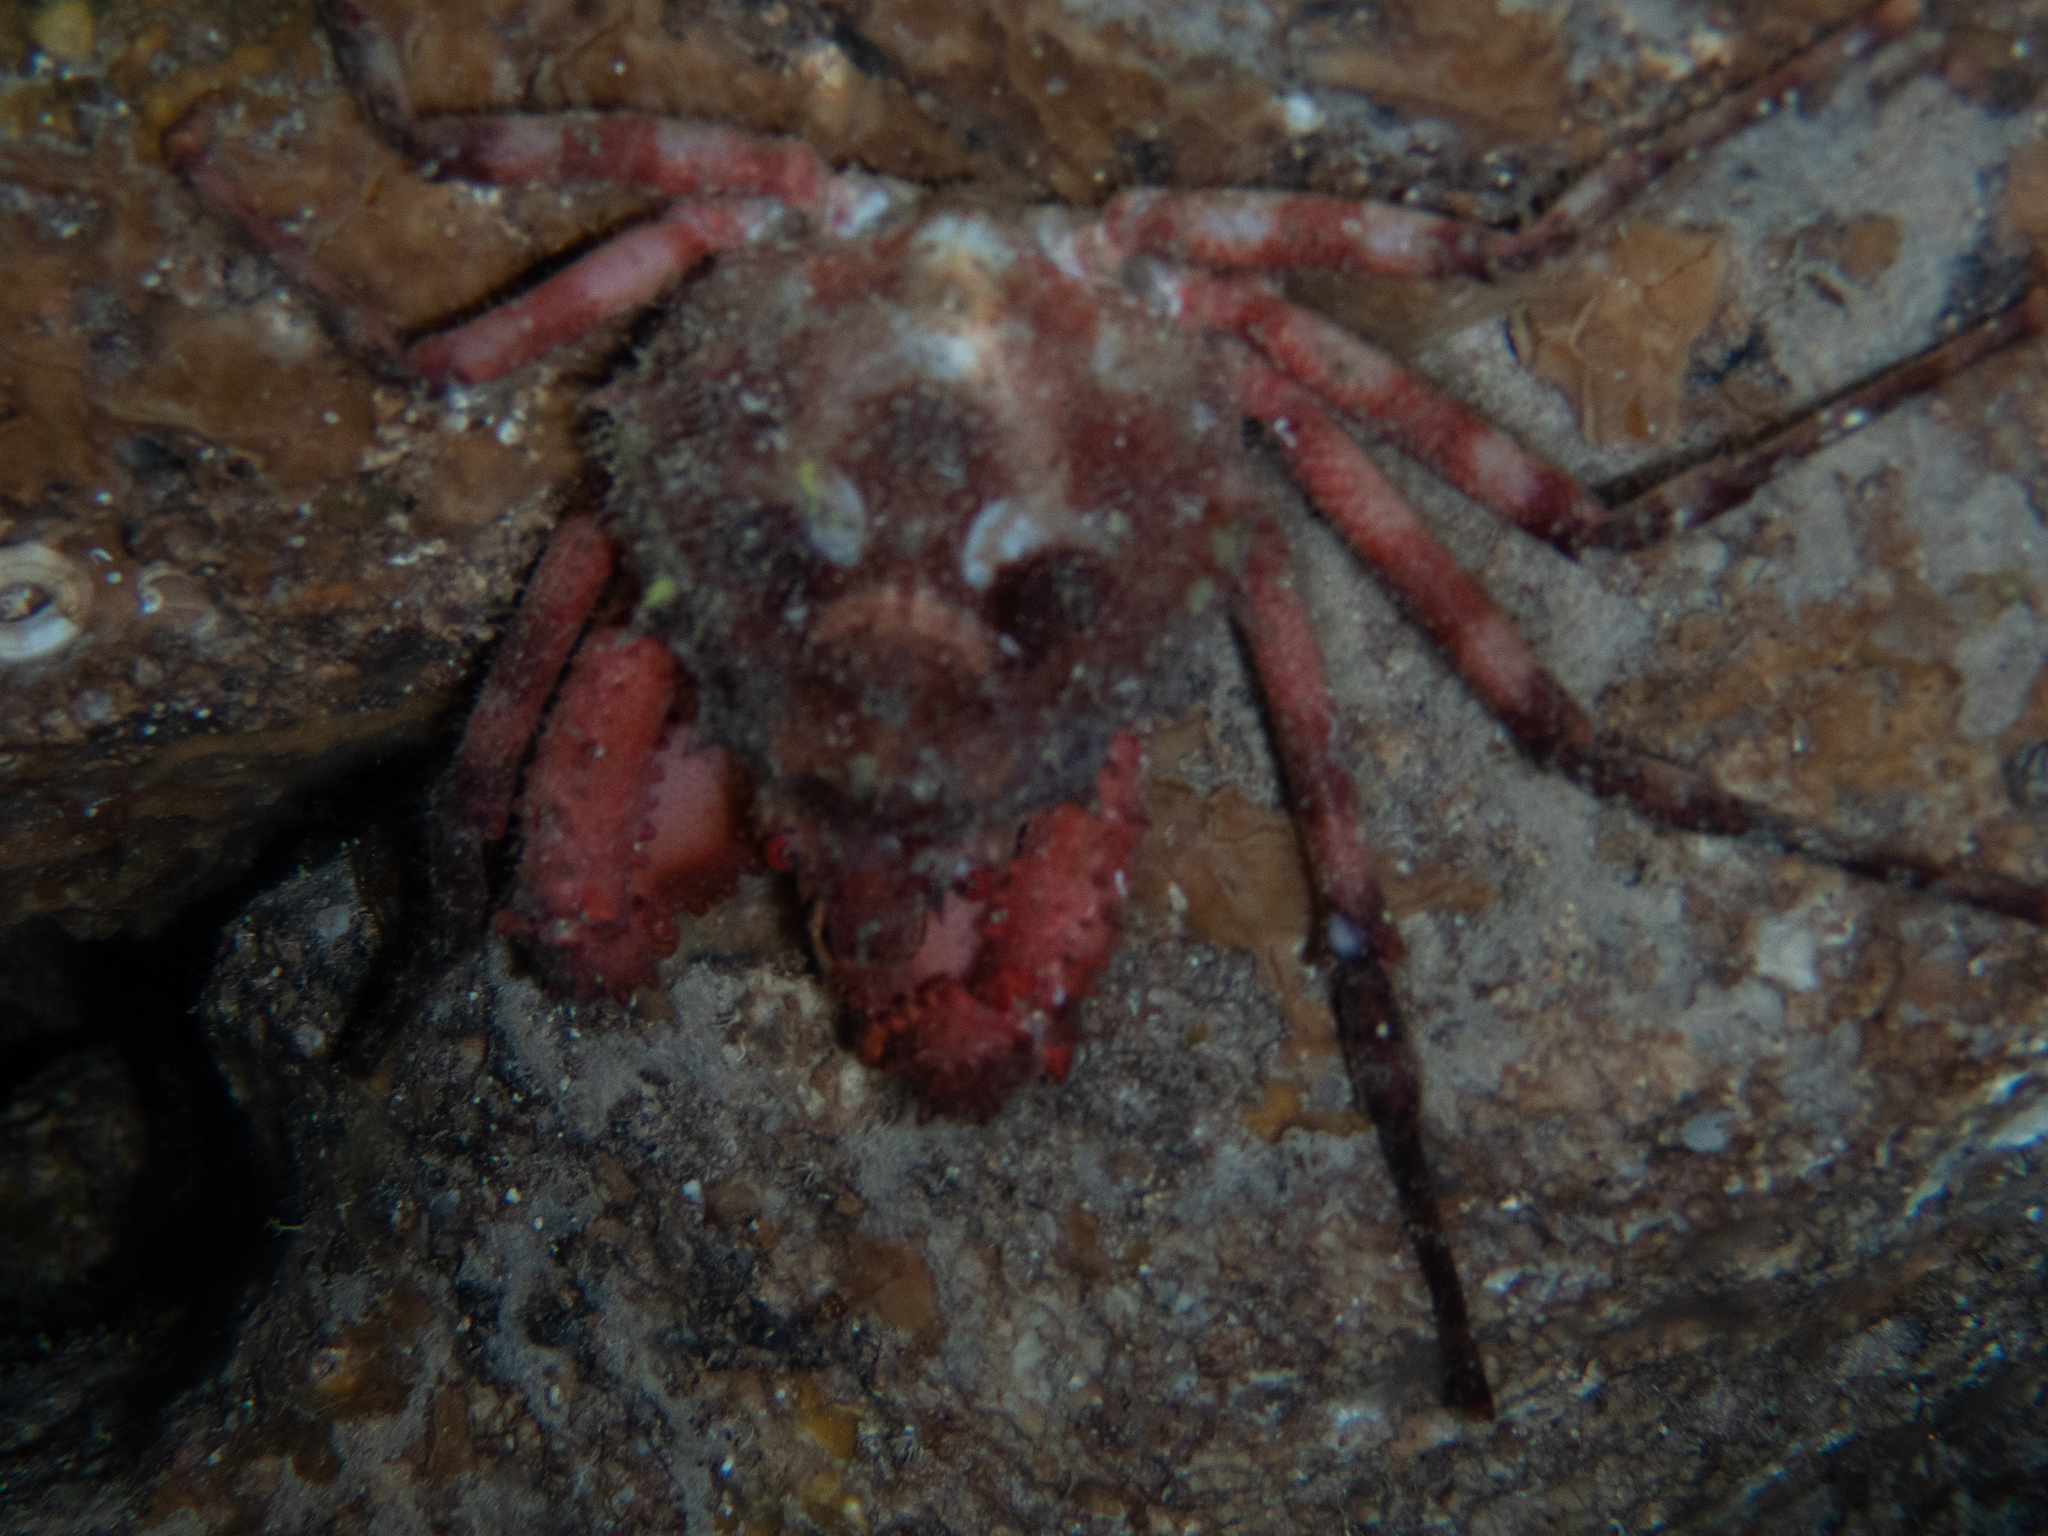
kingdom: Animalia
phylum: Arthropoda
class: Malacostraca
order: Decapoda
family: Epialtidae
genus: Herbstia
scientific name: Herbstia condyliata
